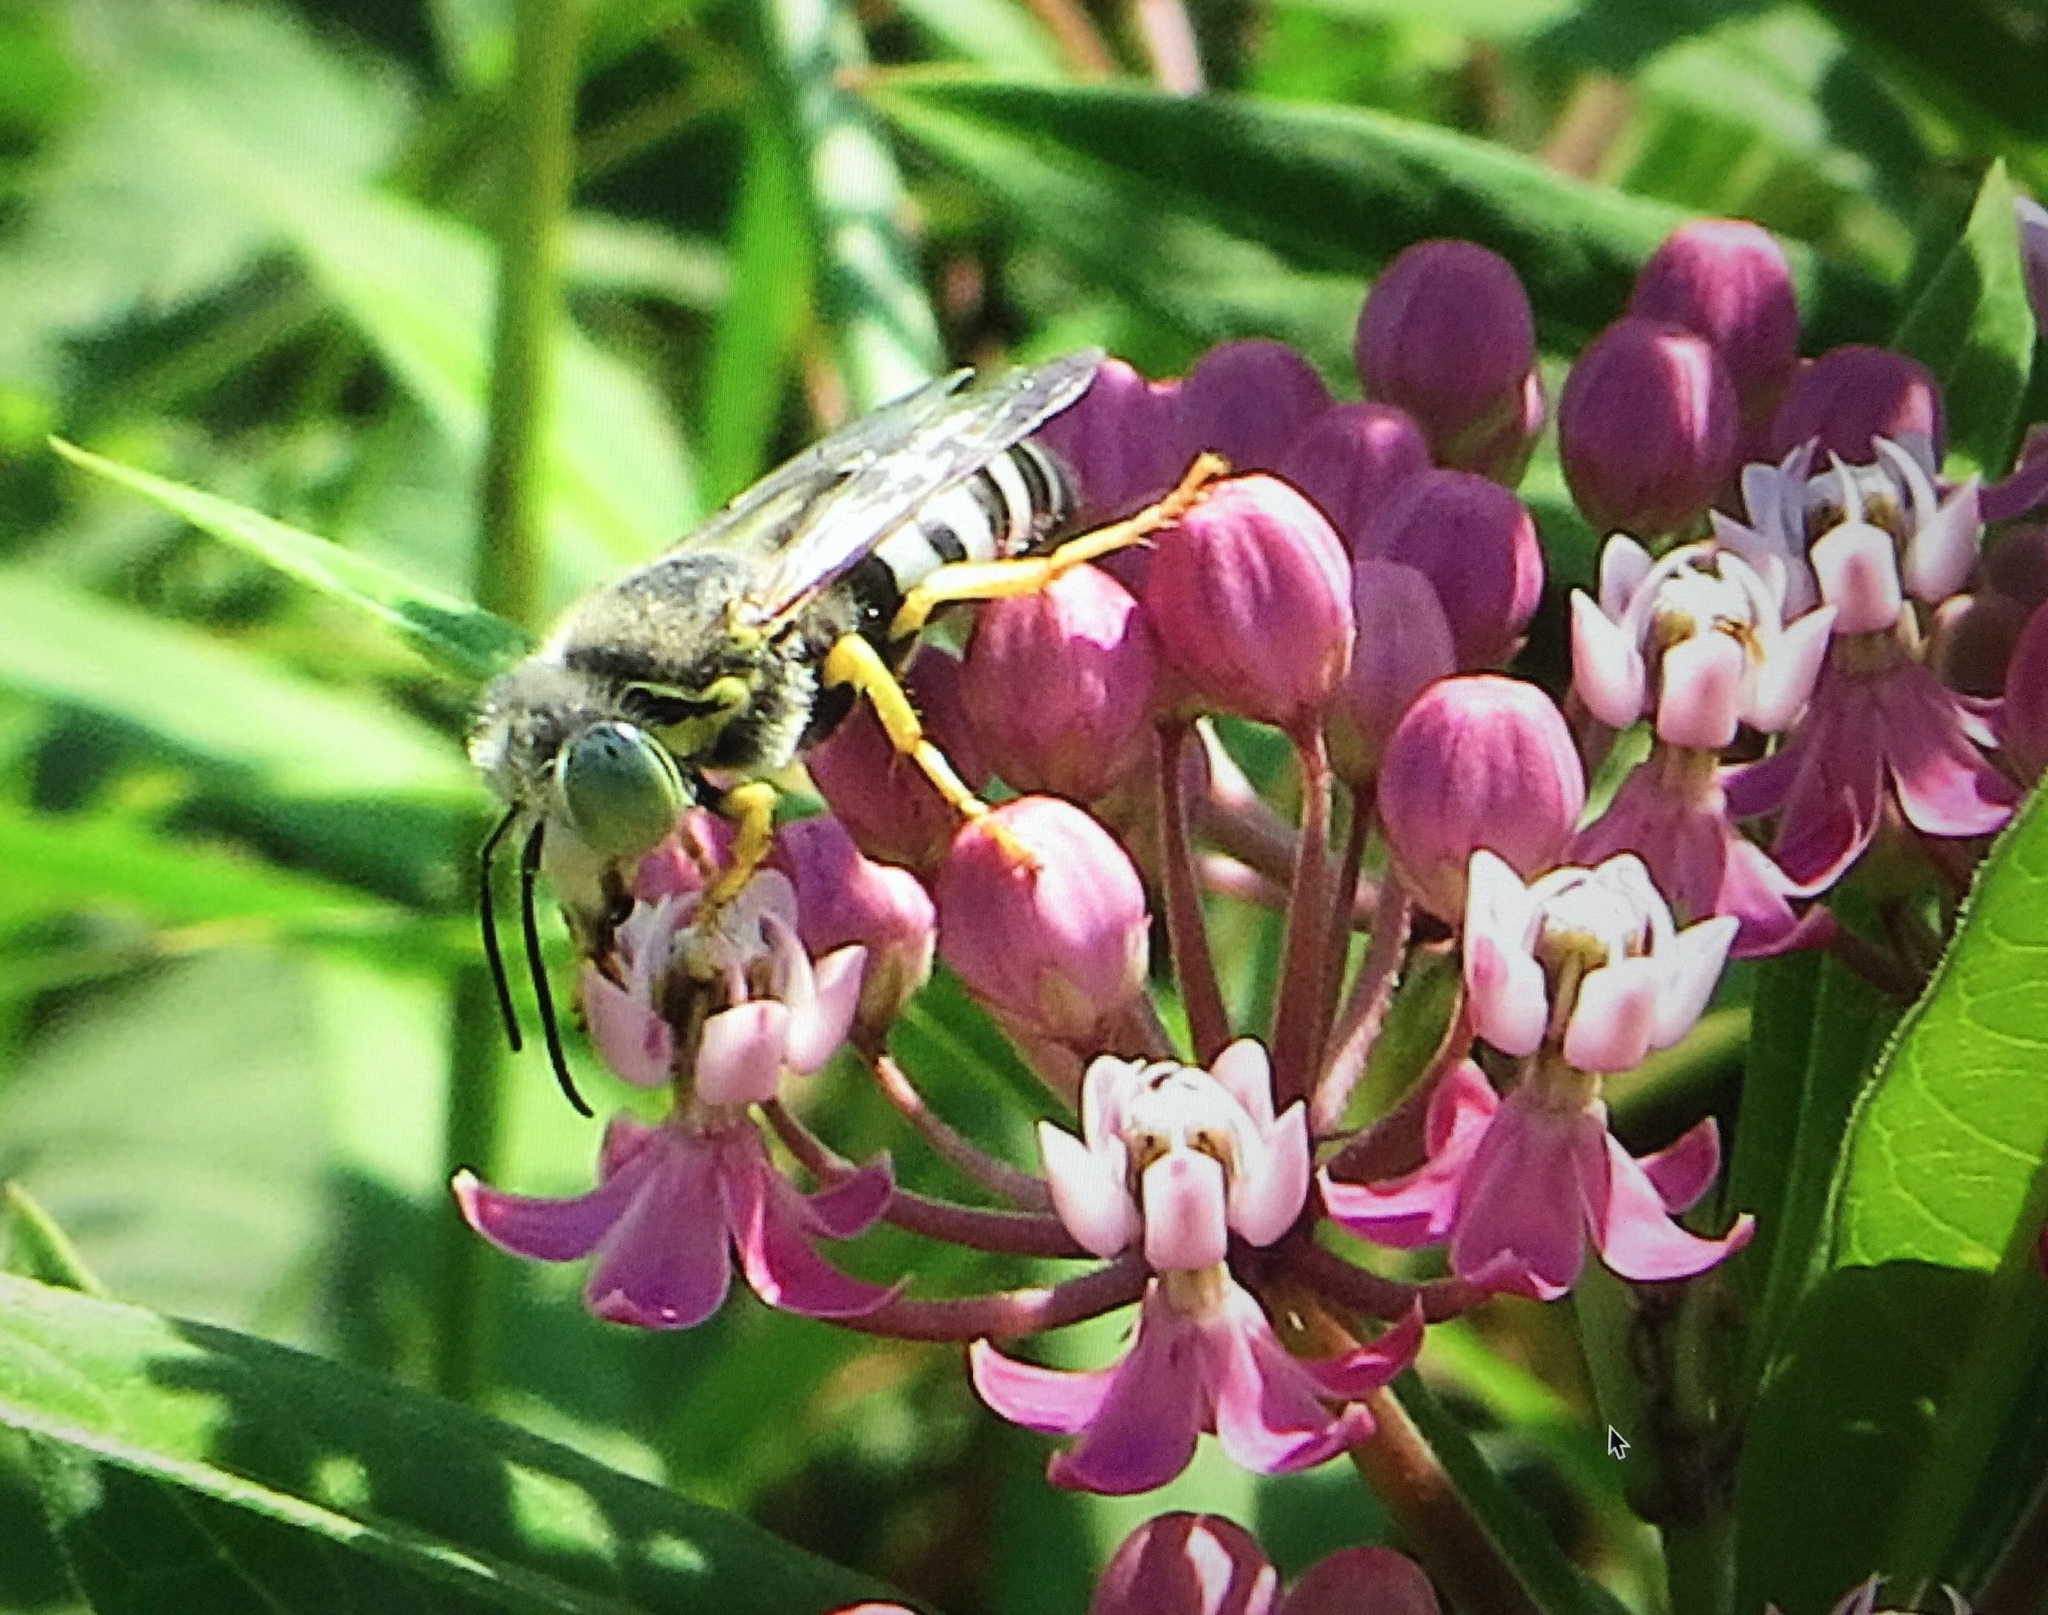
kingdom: Animalia
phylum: Arthropoda
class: Insecta
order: Hymenoptera
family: Crabronidae
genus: Bembix
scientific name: Bembix americana
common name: American sand wasp
